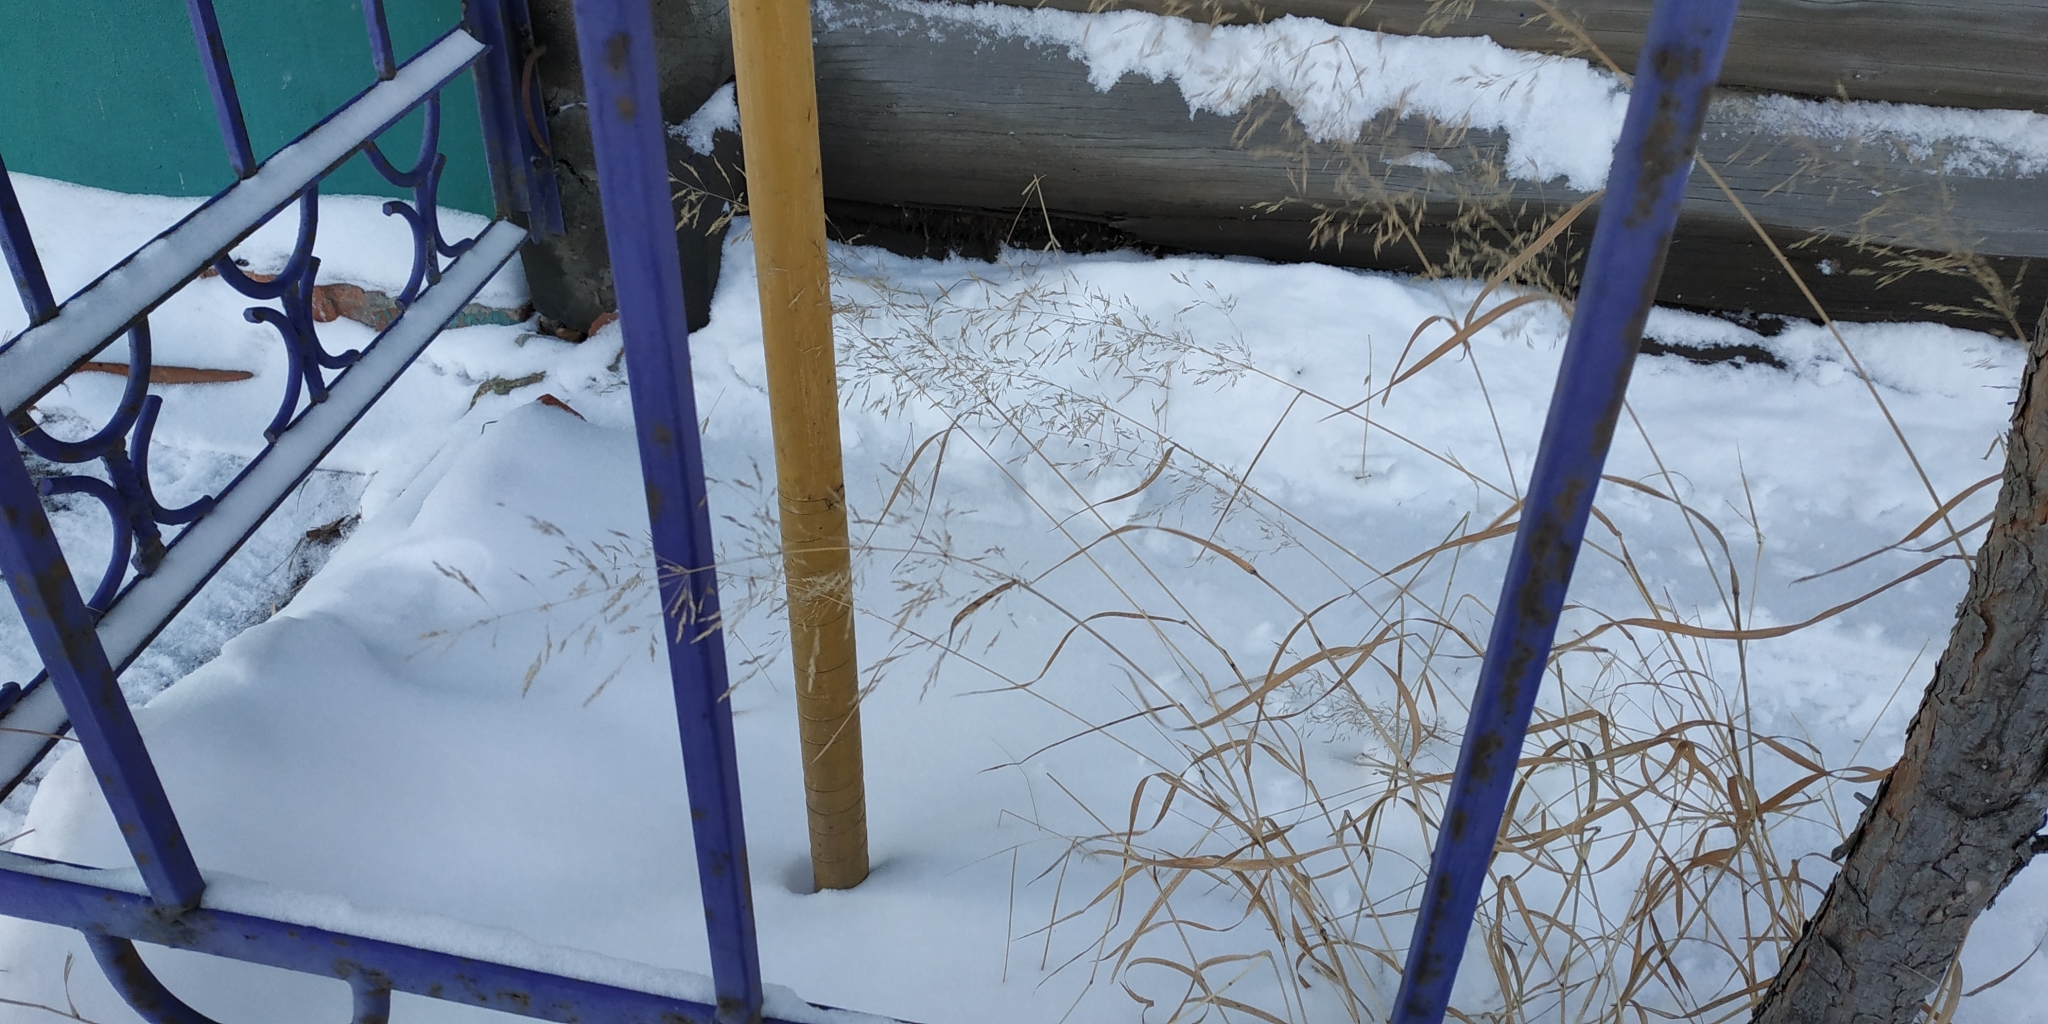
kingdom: Plantae
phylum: Tracheophyta
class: Liliopsida
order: Poales
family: Poaceae
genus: Agrostis
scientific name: Agrostis gigantea
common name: Black bent
